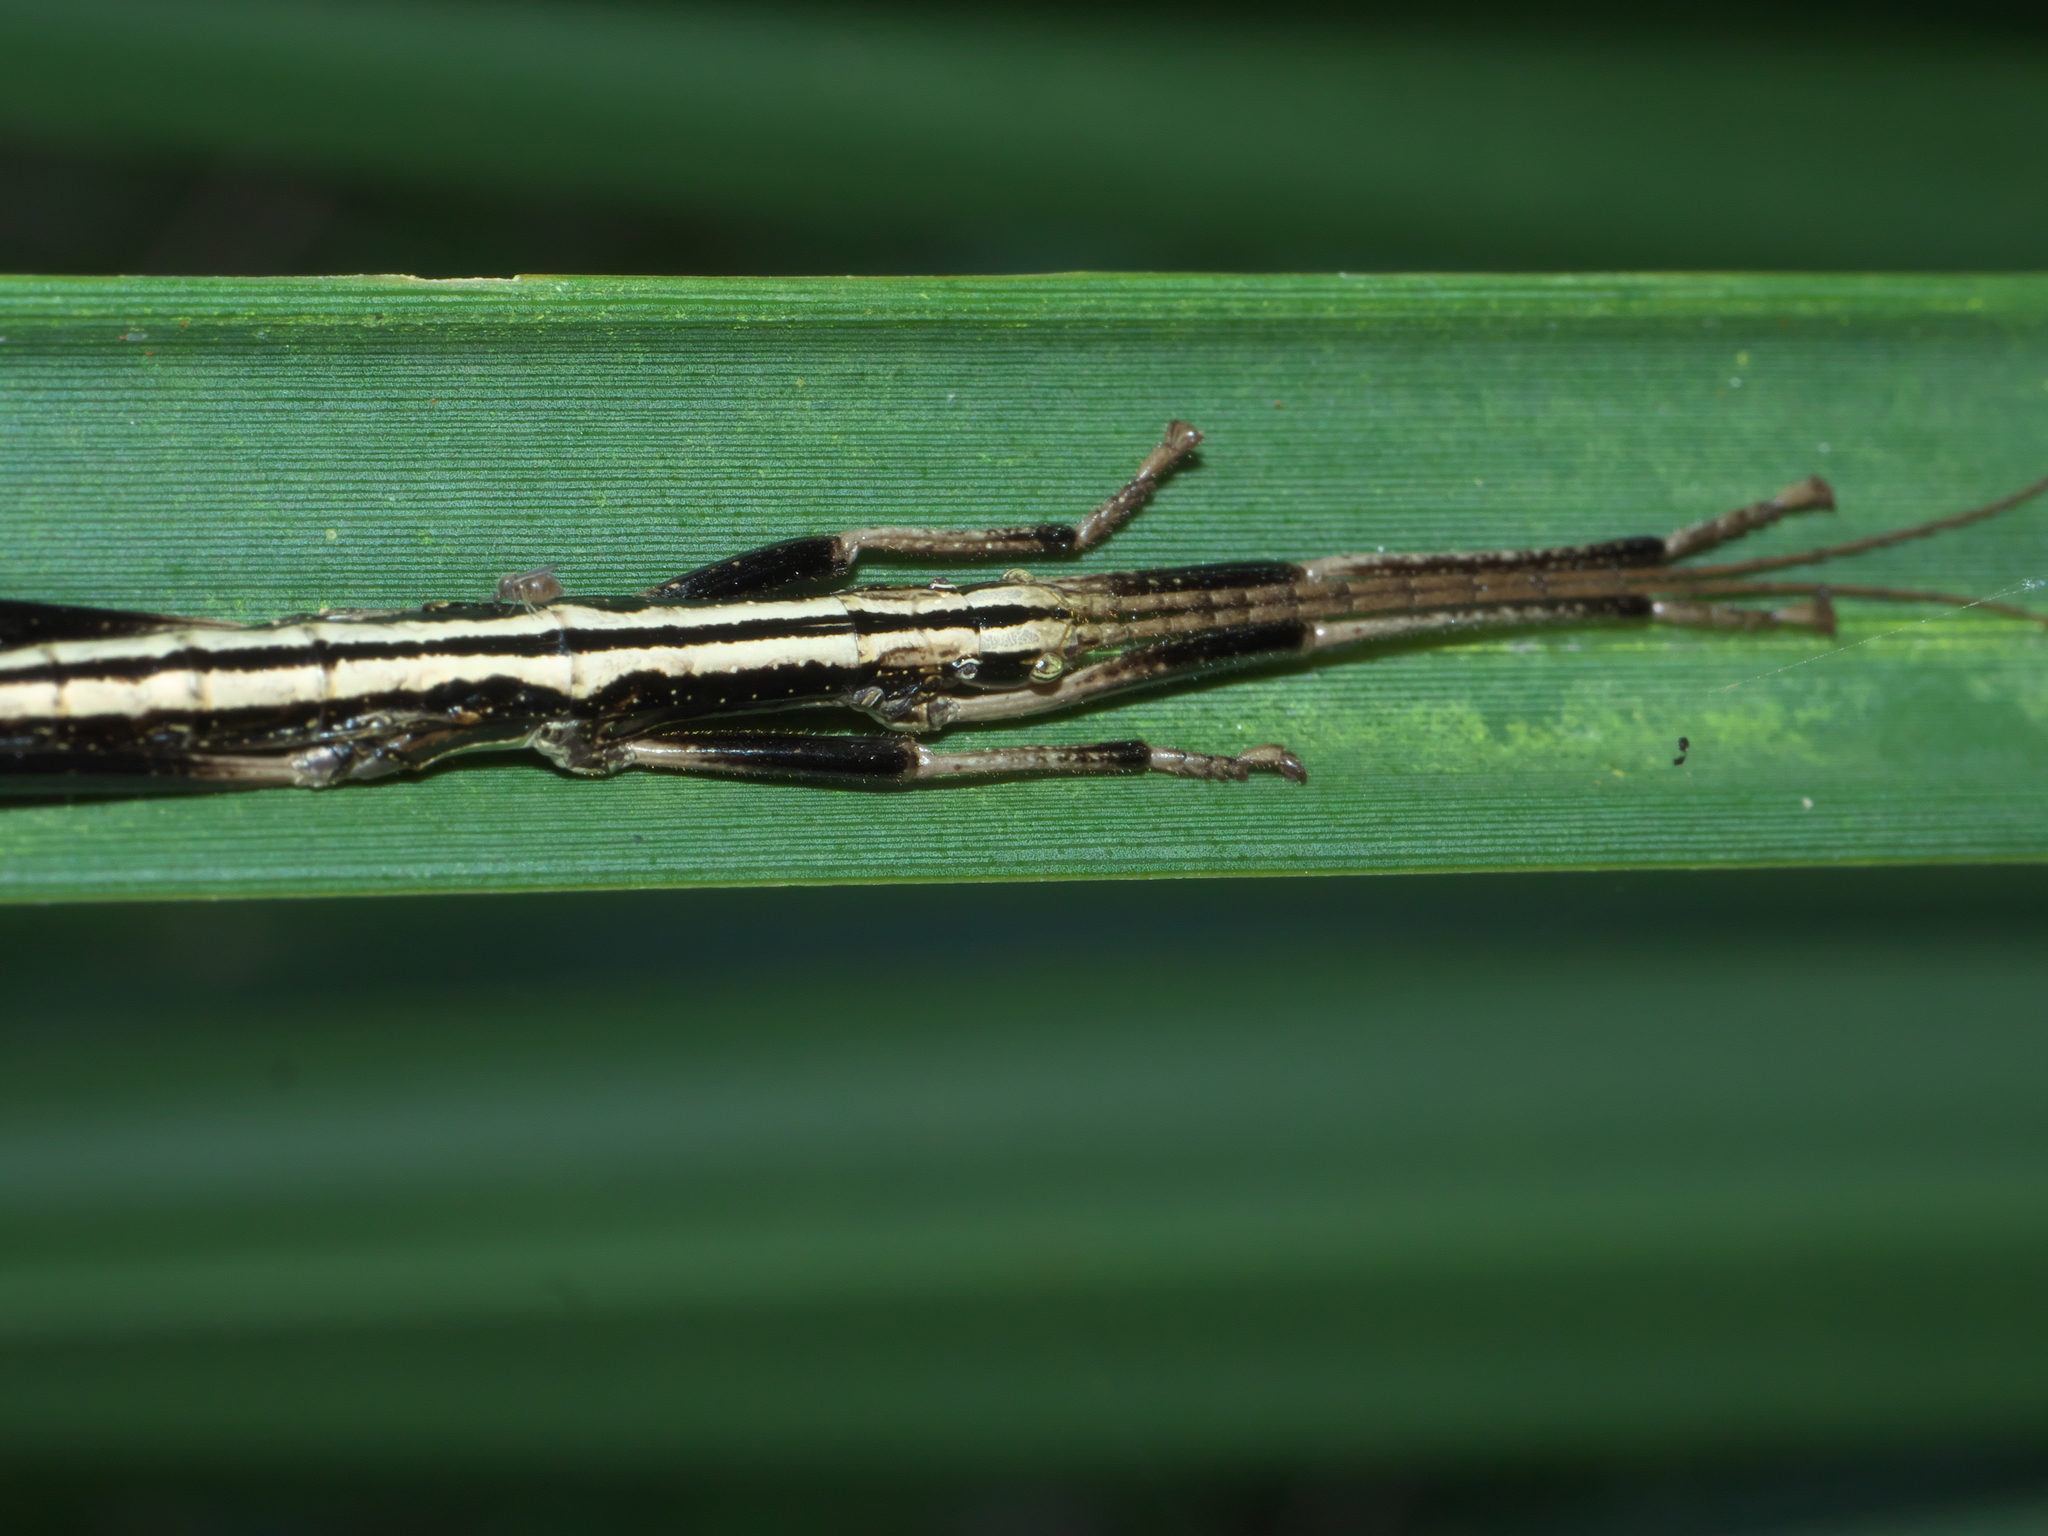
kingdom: Animalia
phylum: Arthropoda
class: Insecta
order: Phasmida
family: Pseudophasmatidae
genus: Anisomorpha
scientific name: Anisomorpha buprestoides
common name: Florida stick insect
